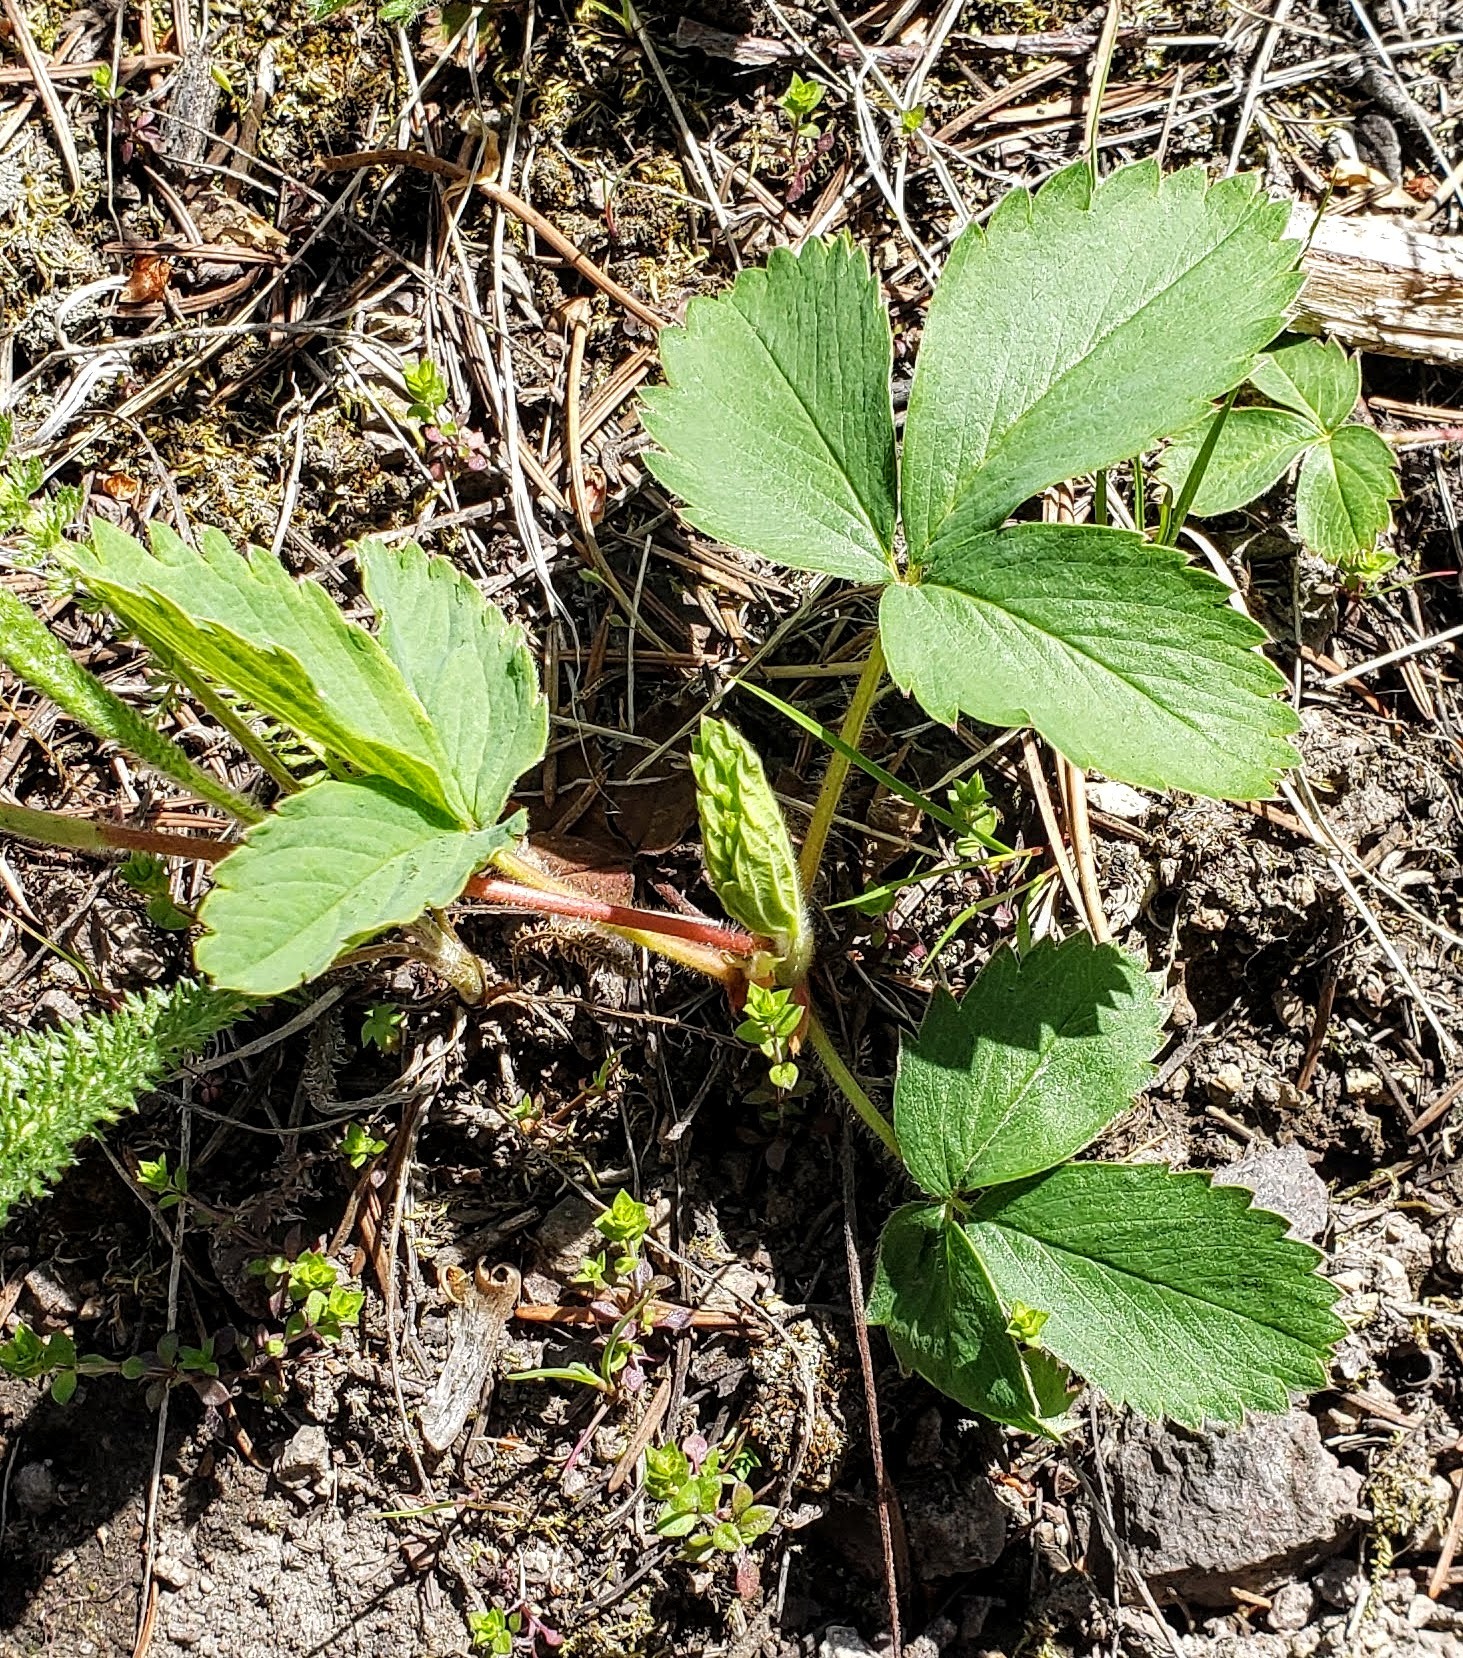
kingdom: Plantae
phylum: Tracheophyta
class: Magnoliopsida
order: Rosales
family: Rosaceae
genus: Fragaria
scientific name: Fragaria virginiana
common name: Thickleaved wild strawberry
